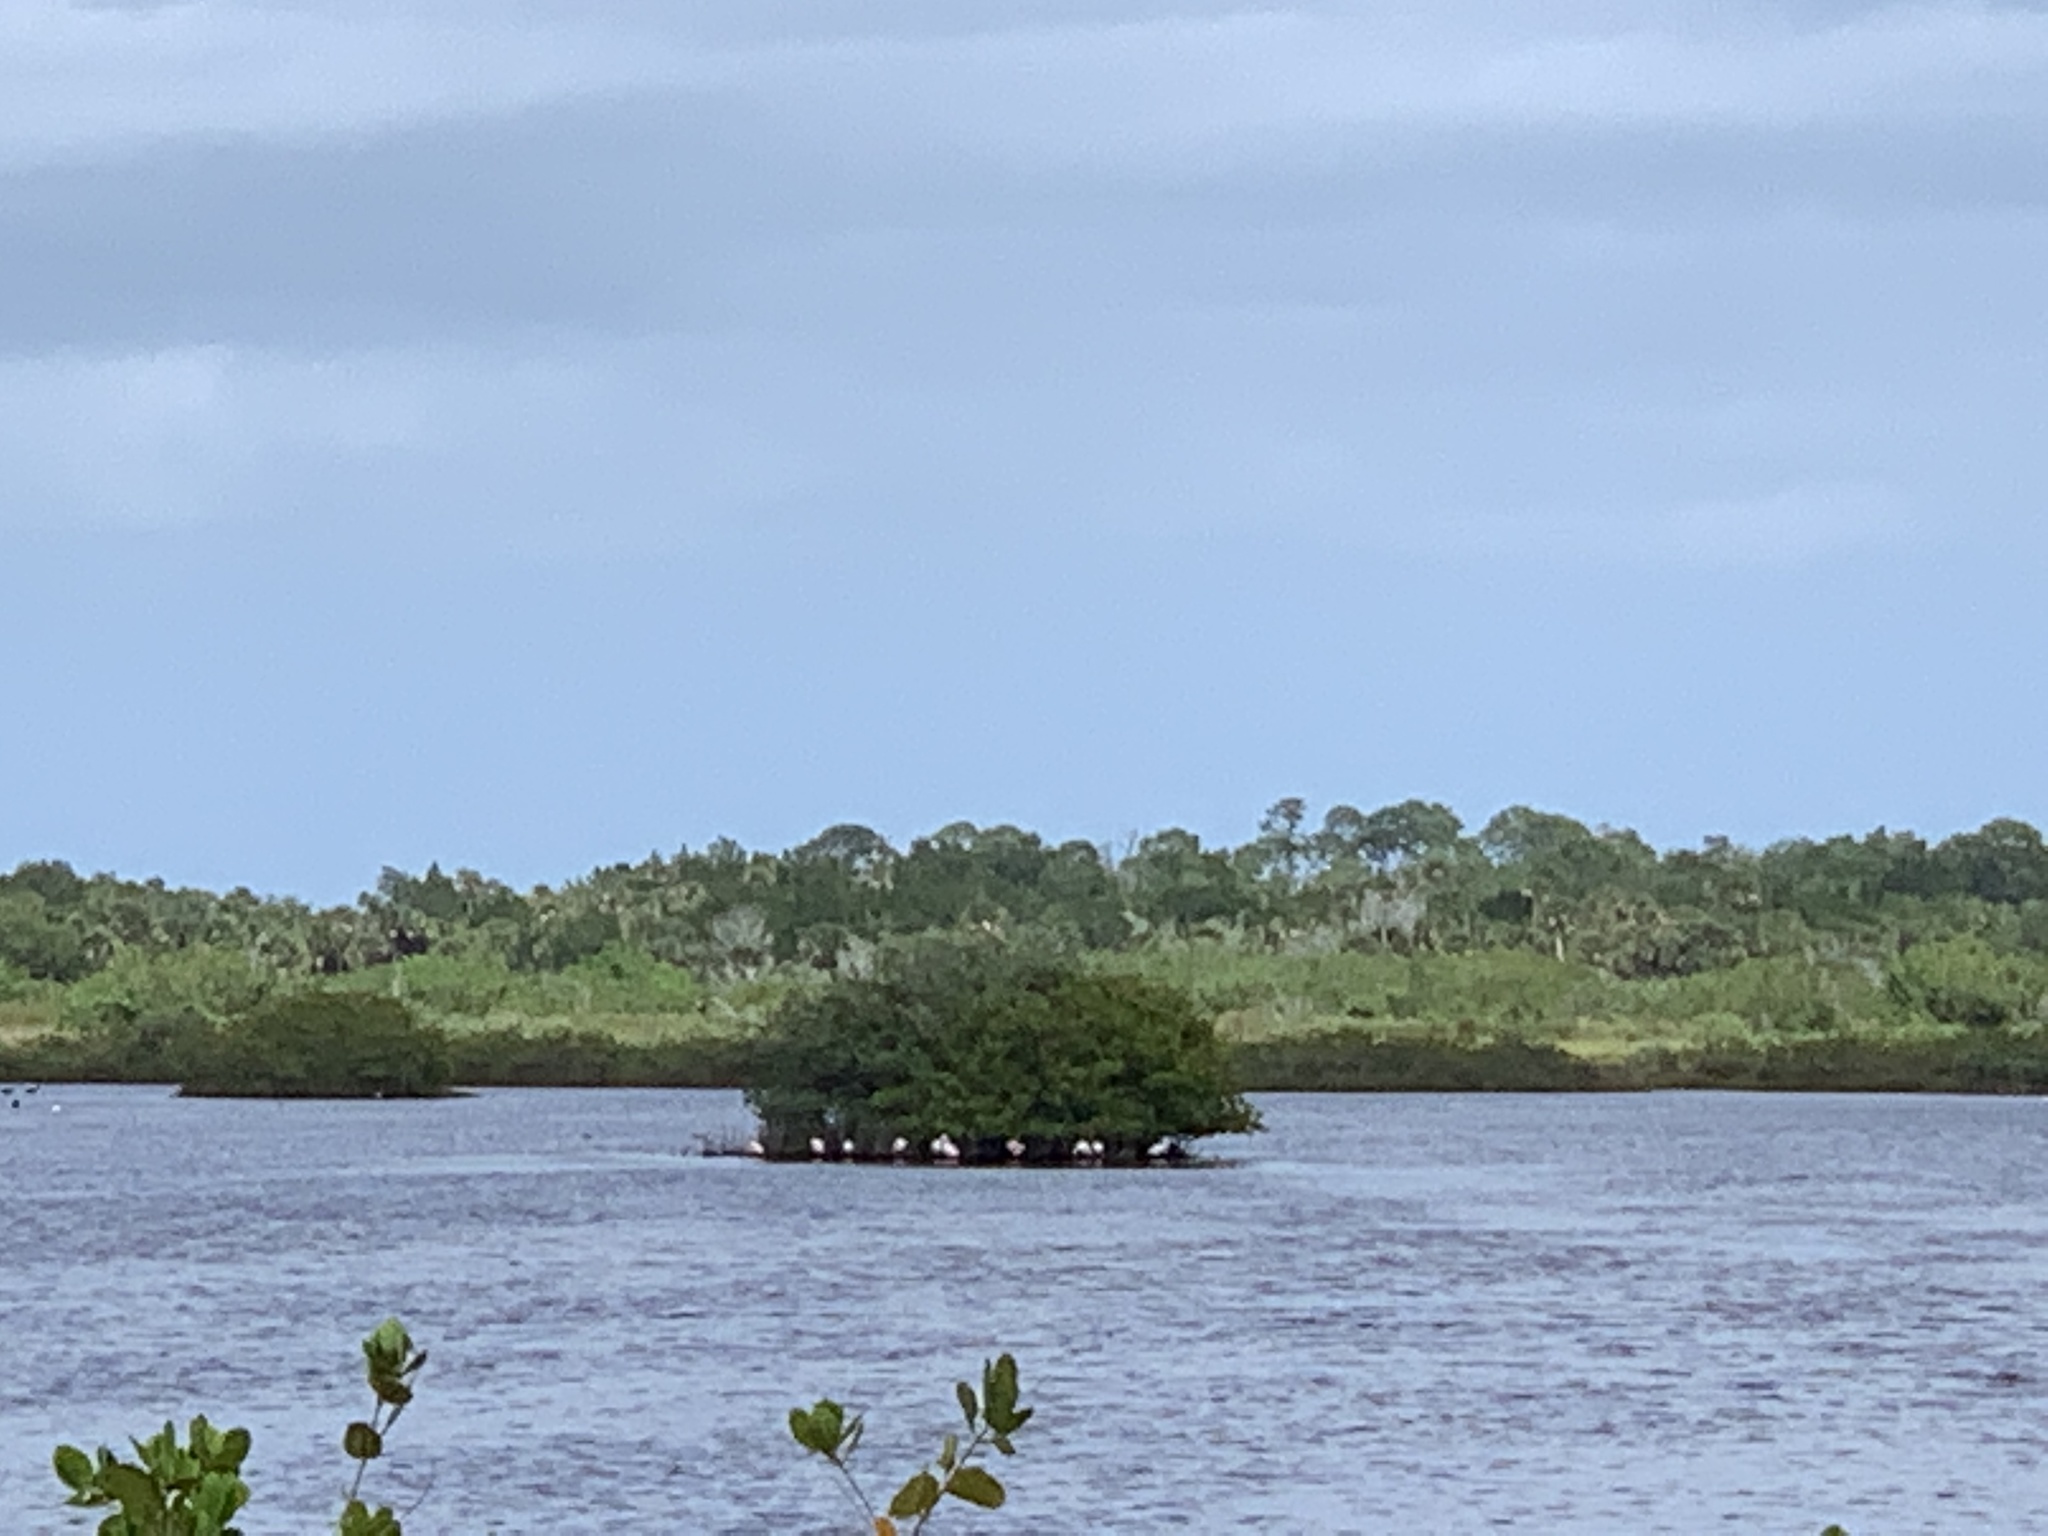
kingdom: Animalia
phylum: Chordata
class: Aves
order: Pelecaniformes
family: Threskiornithidae
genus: Platalea
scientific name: Platalea ajaja
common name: Roseate spoonbill
